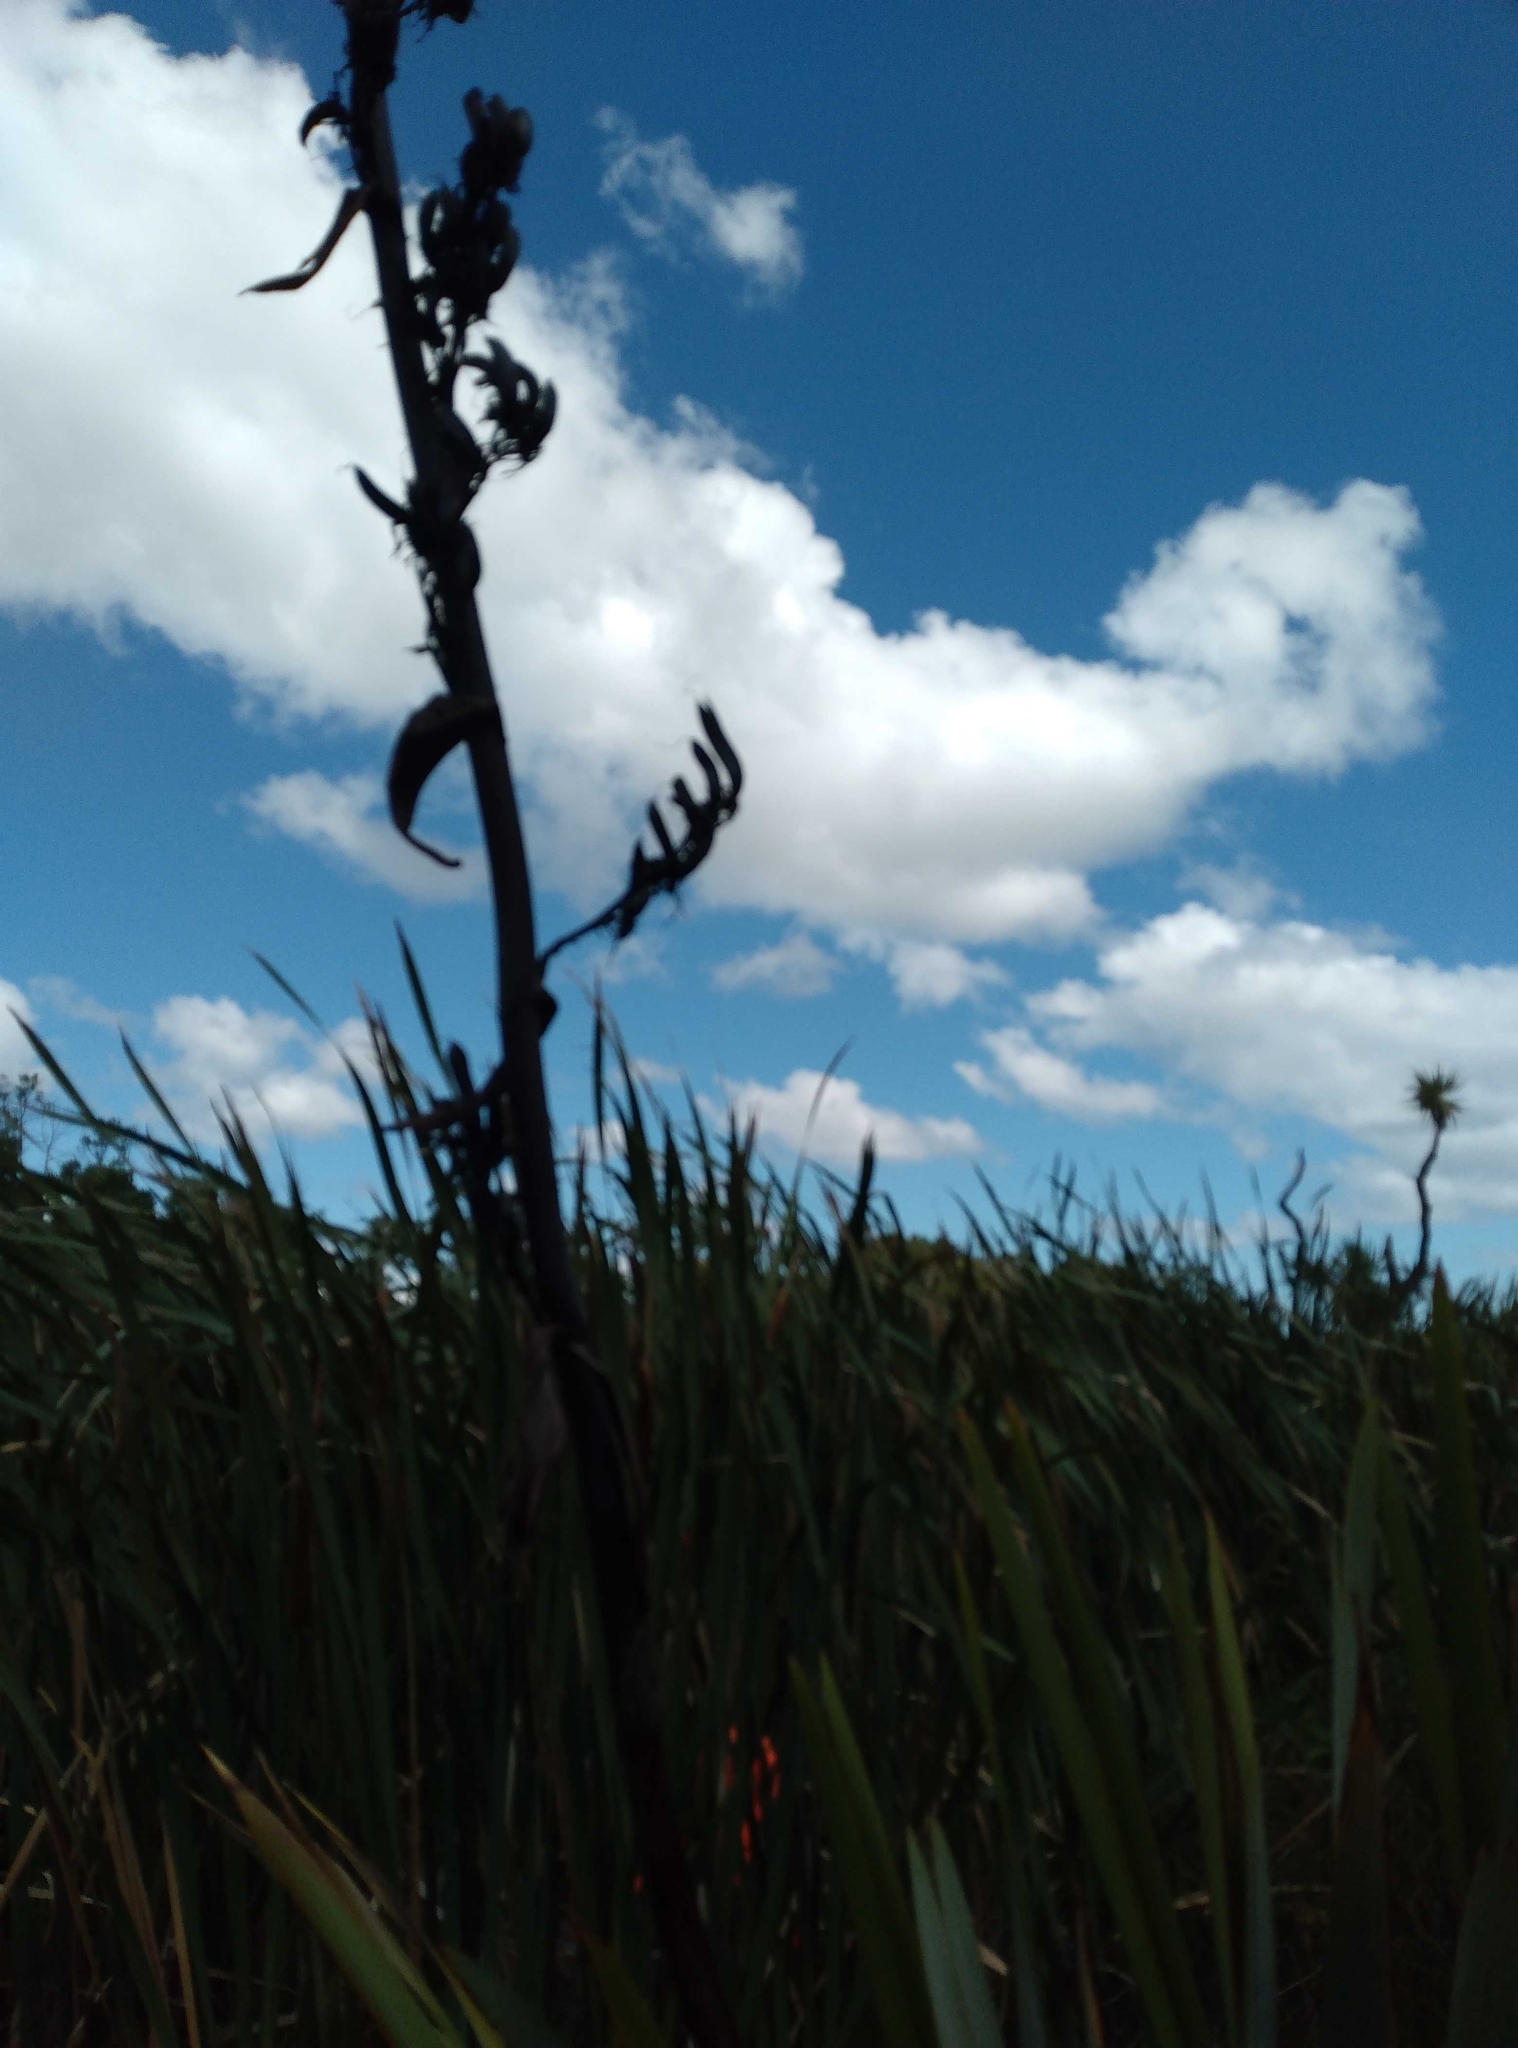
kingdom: Plantae
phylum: Tracheophyta
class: Liliopsida
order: Asparagales
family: Asphodelaceae
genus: Phormium
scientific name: Phormium tenax
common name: New zealand flax
